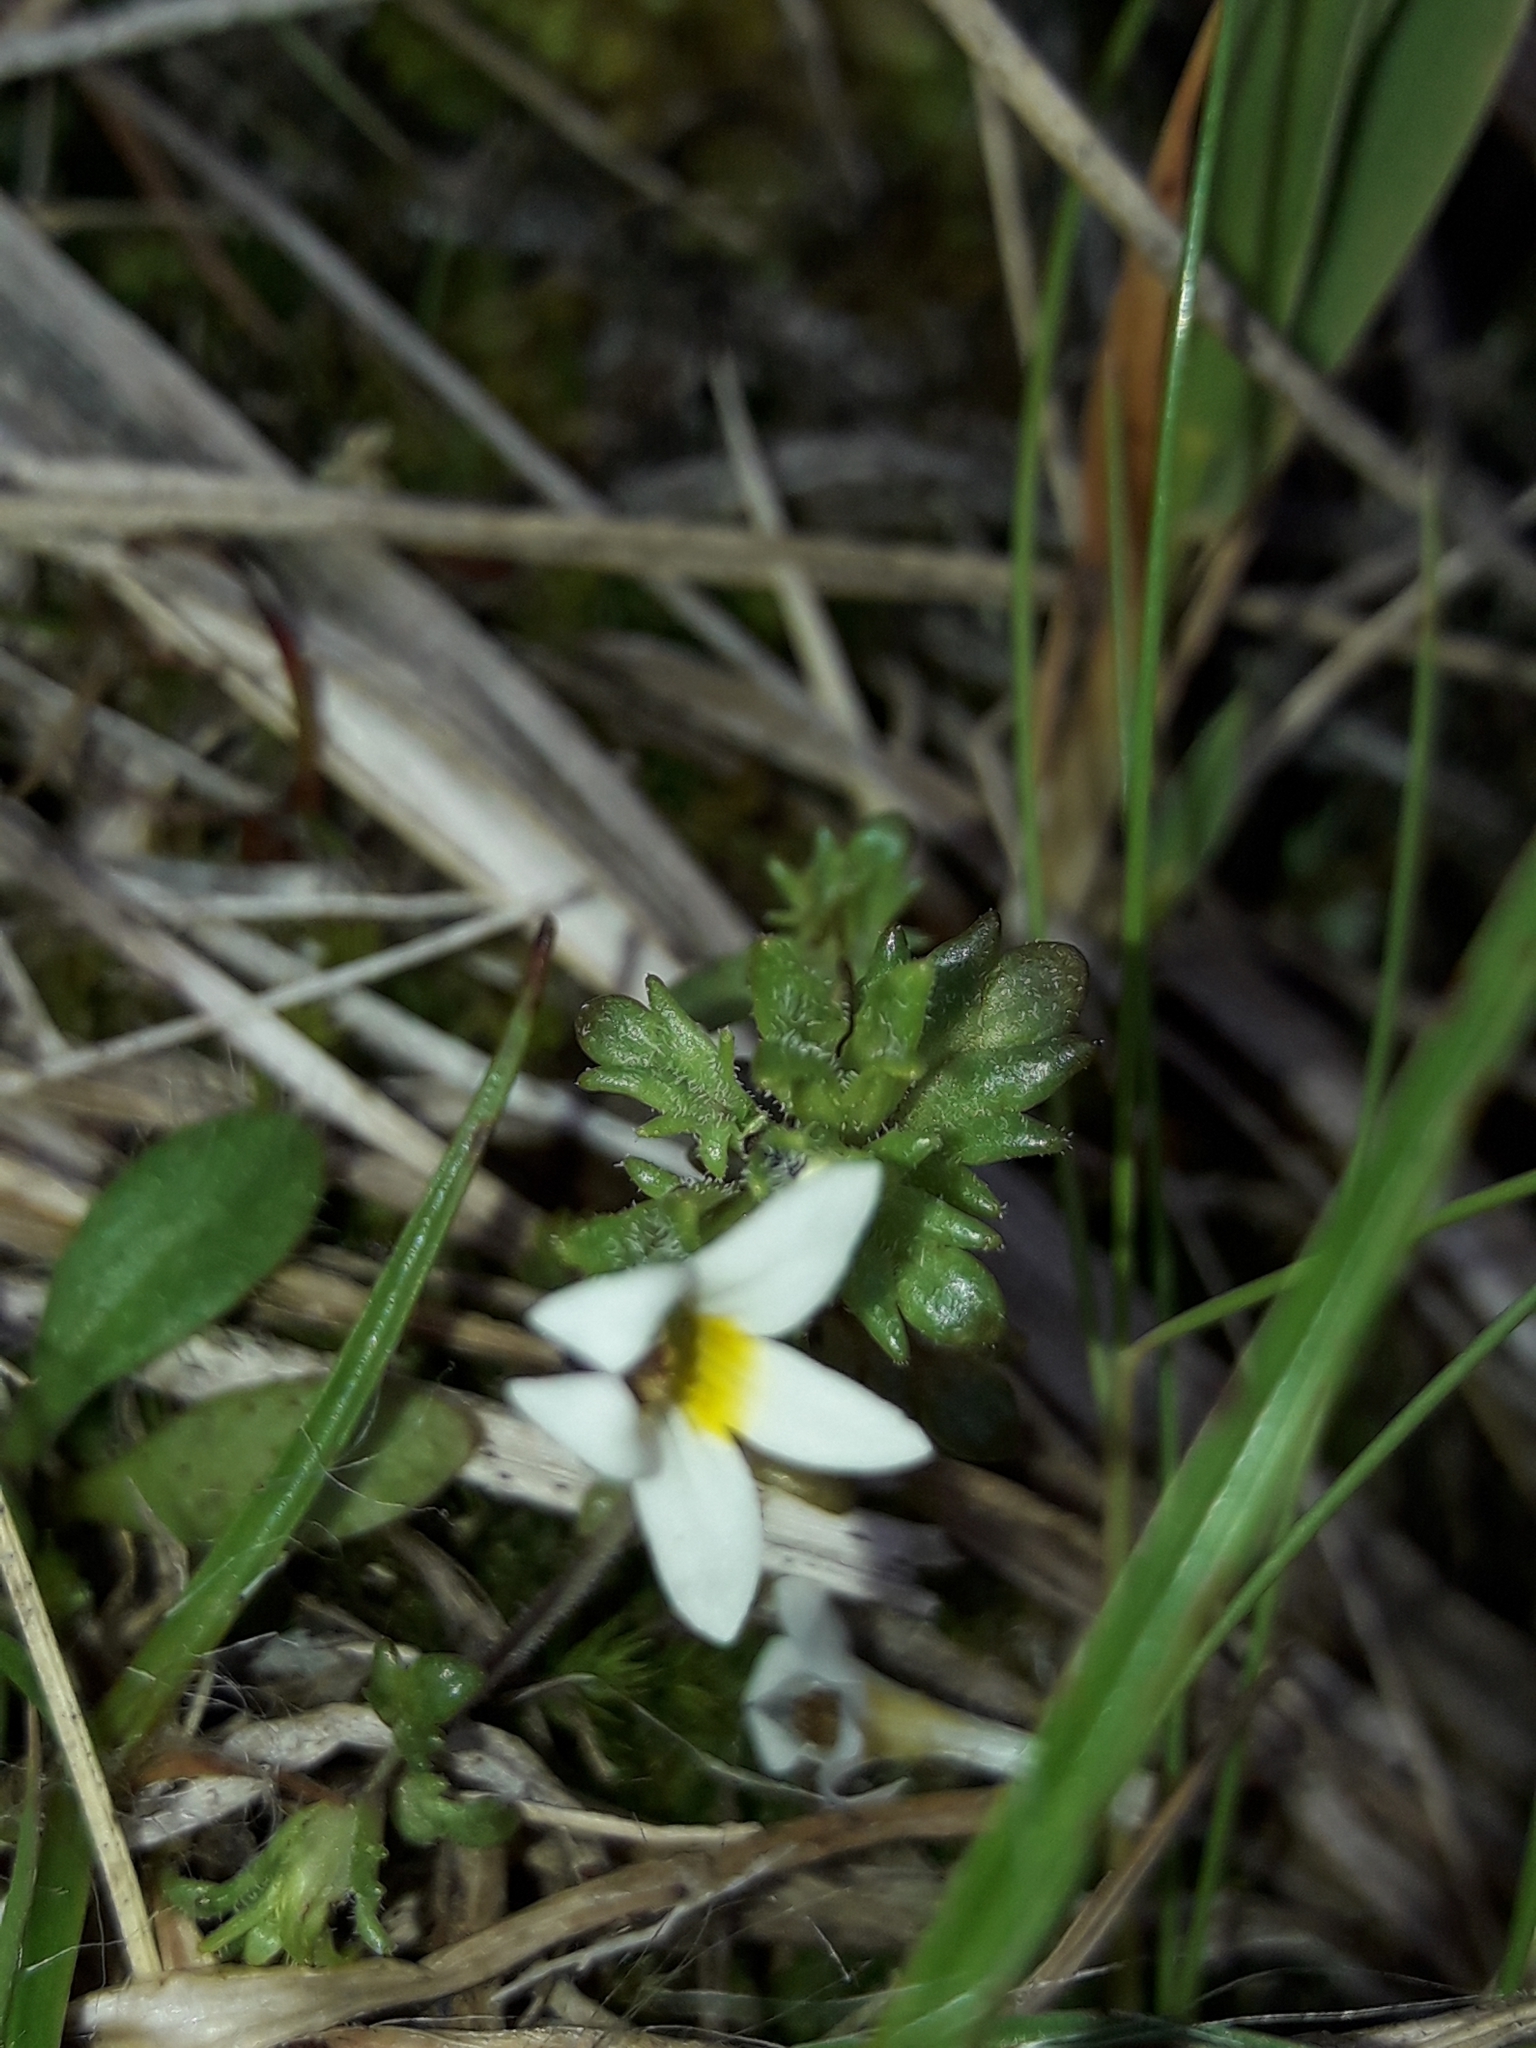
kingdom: Plantae
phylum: Tracheophyta
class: Magnoliopsida
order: Lamiales
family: Orobanchaceae
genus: Euphrasia
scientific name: Euphrasia zelandica
